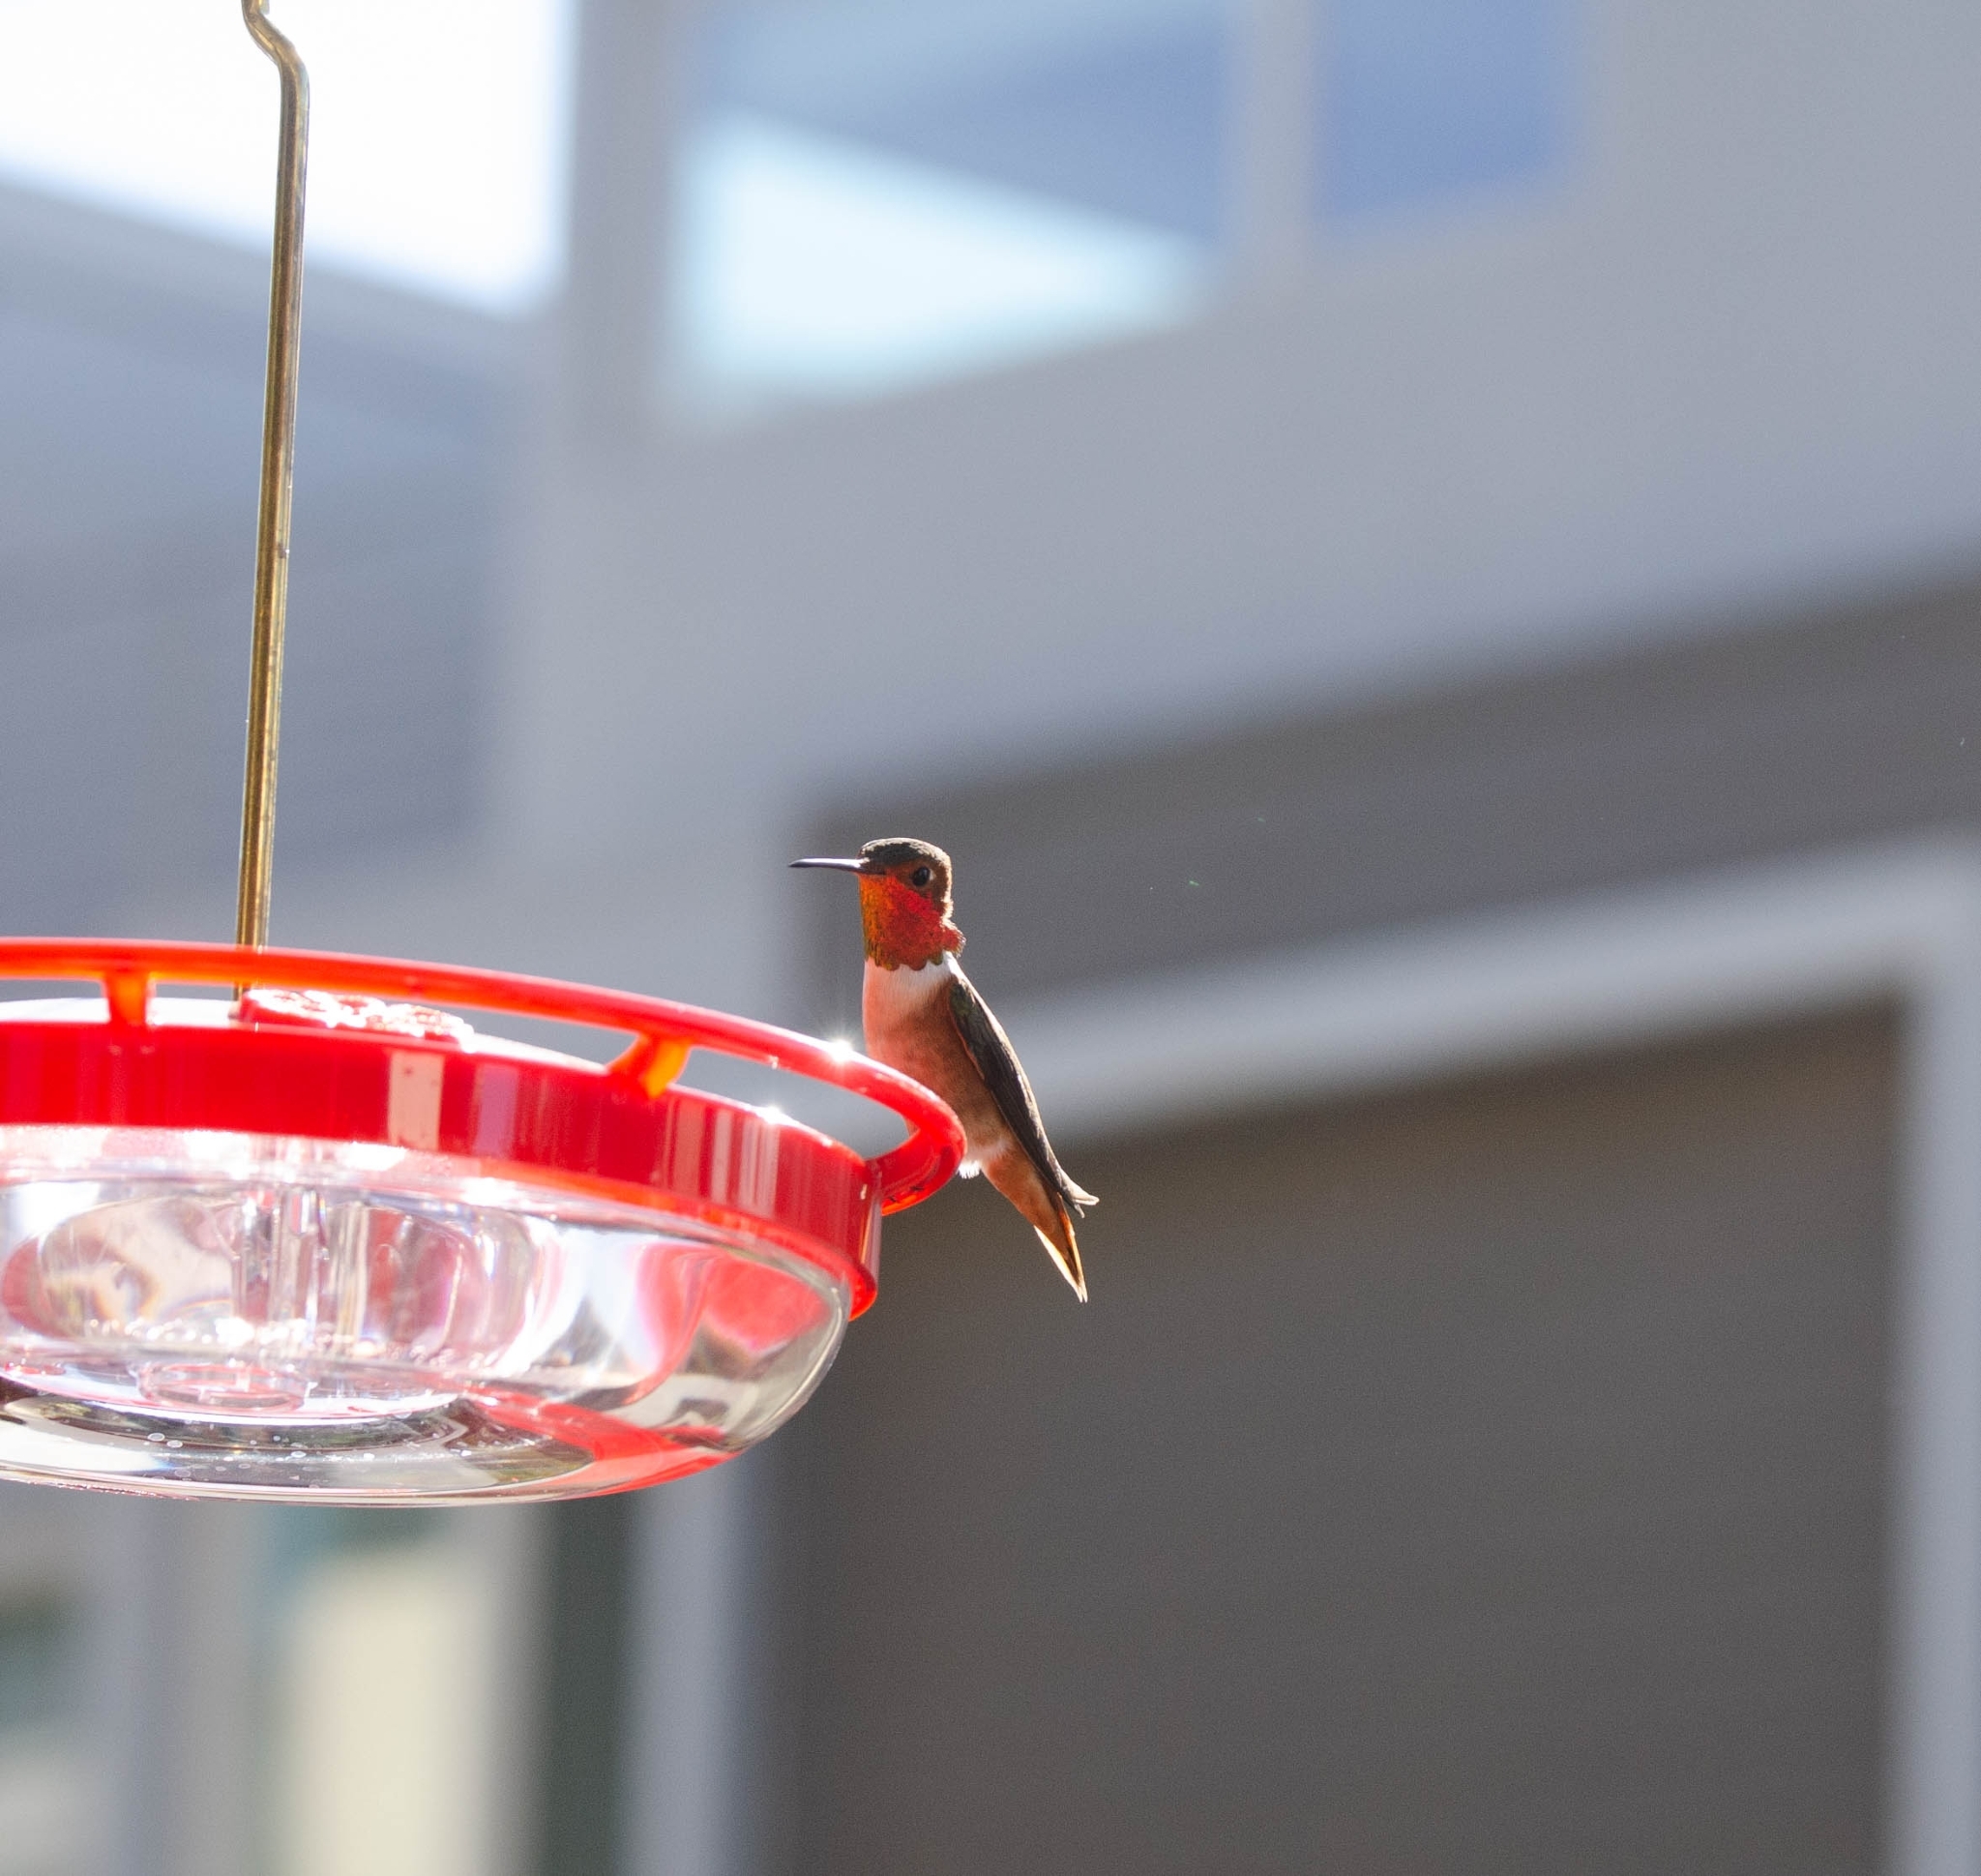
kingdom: Animalia
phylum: Chordata
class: Aves
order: Apodiformes
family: Trochilidae
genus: Selasphorus
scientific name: Selasphorus sasin
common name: Allen's hummingbird
